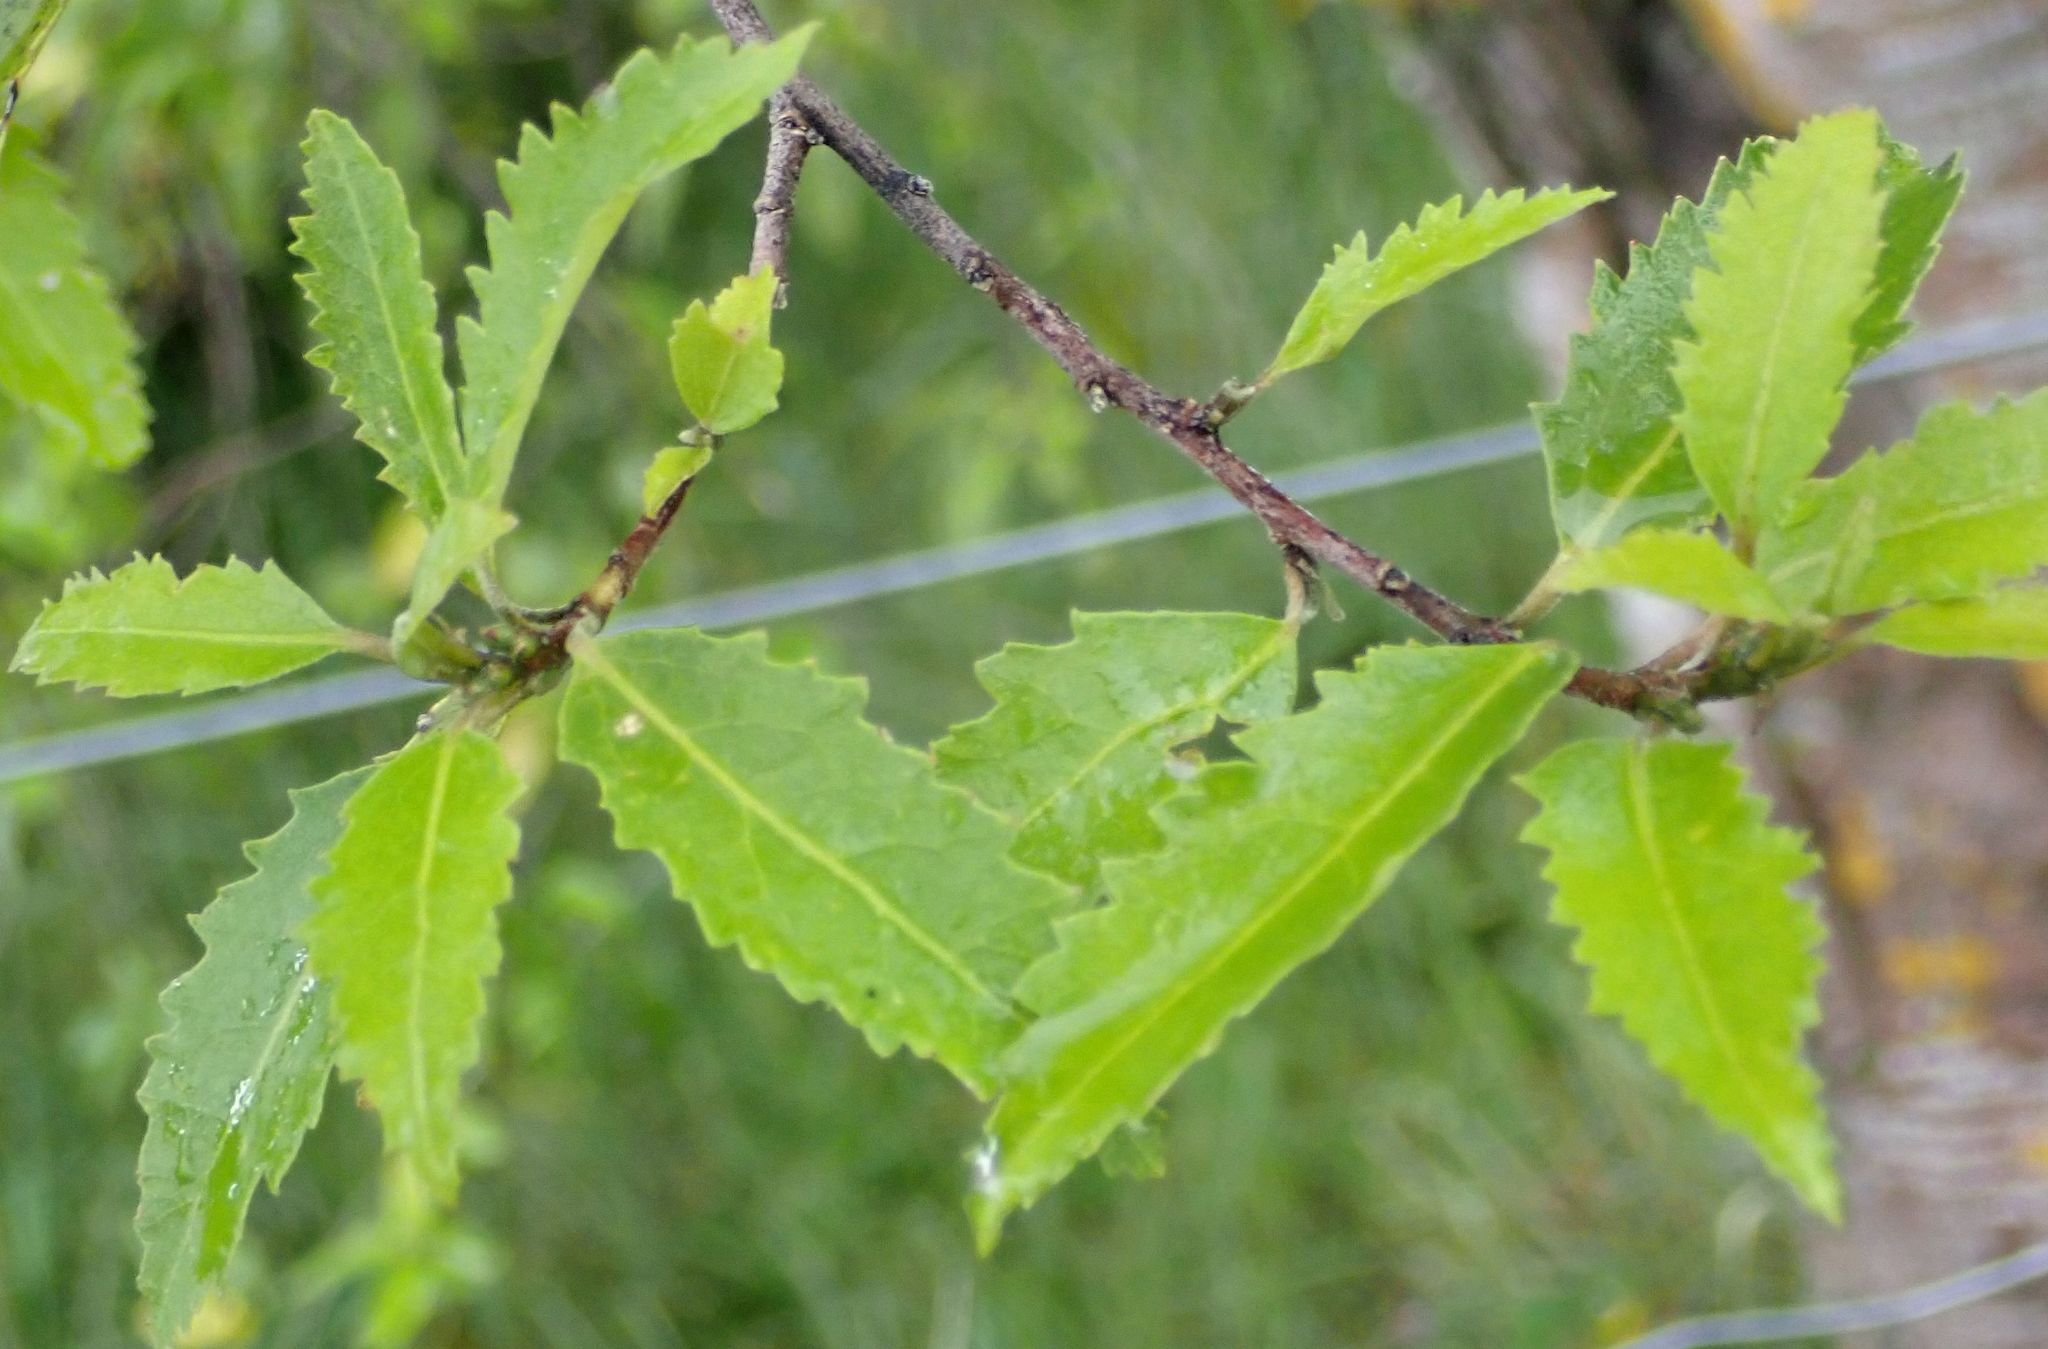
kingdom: Plantae
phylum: Tracheophyta
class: Magnoliopsida
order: Malvales
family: Malvaceae
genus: Hoheria
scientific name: Hoheria angustifolia
